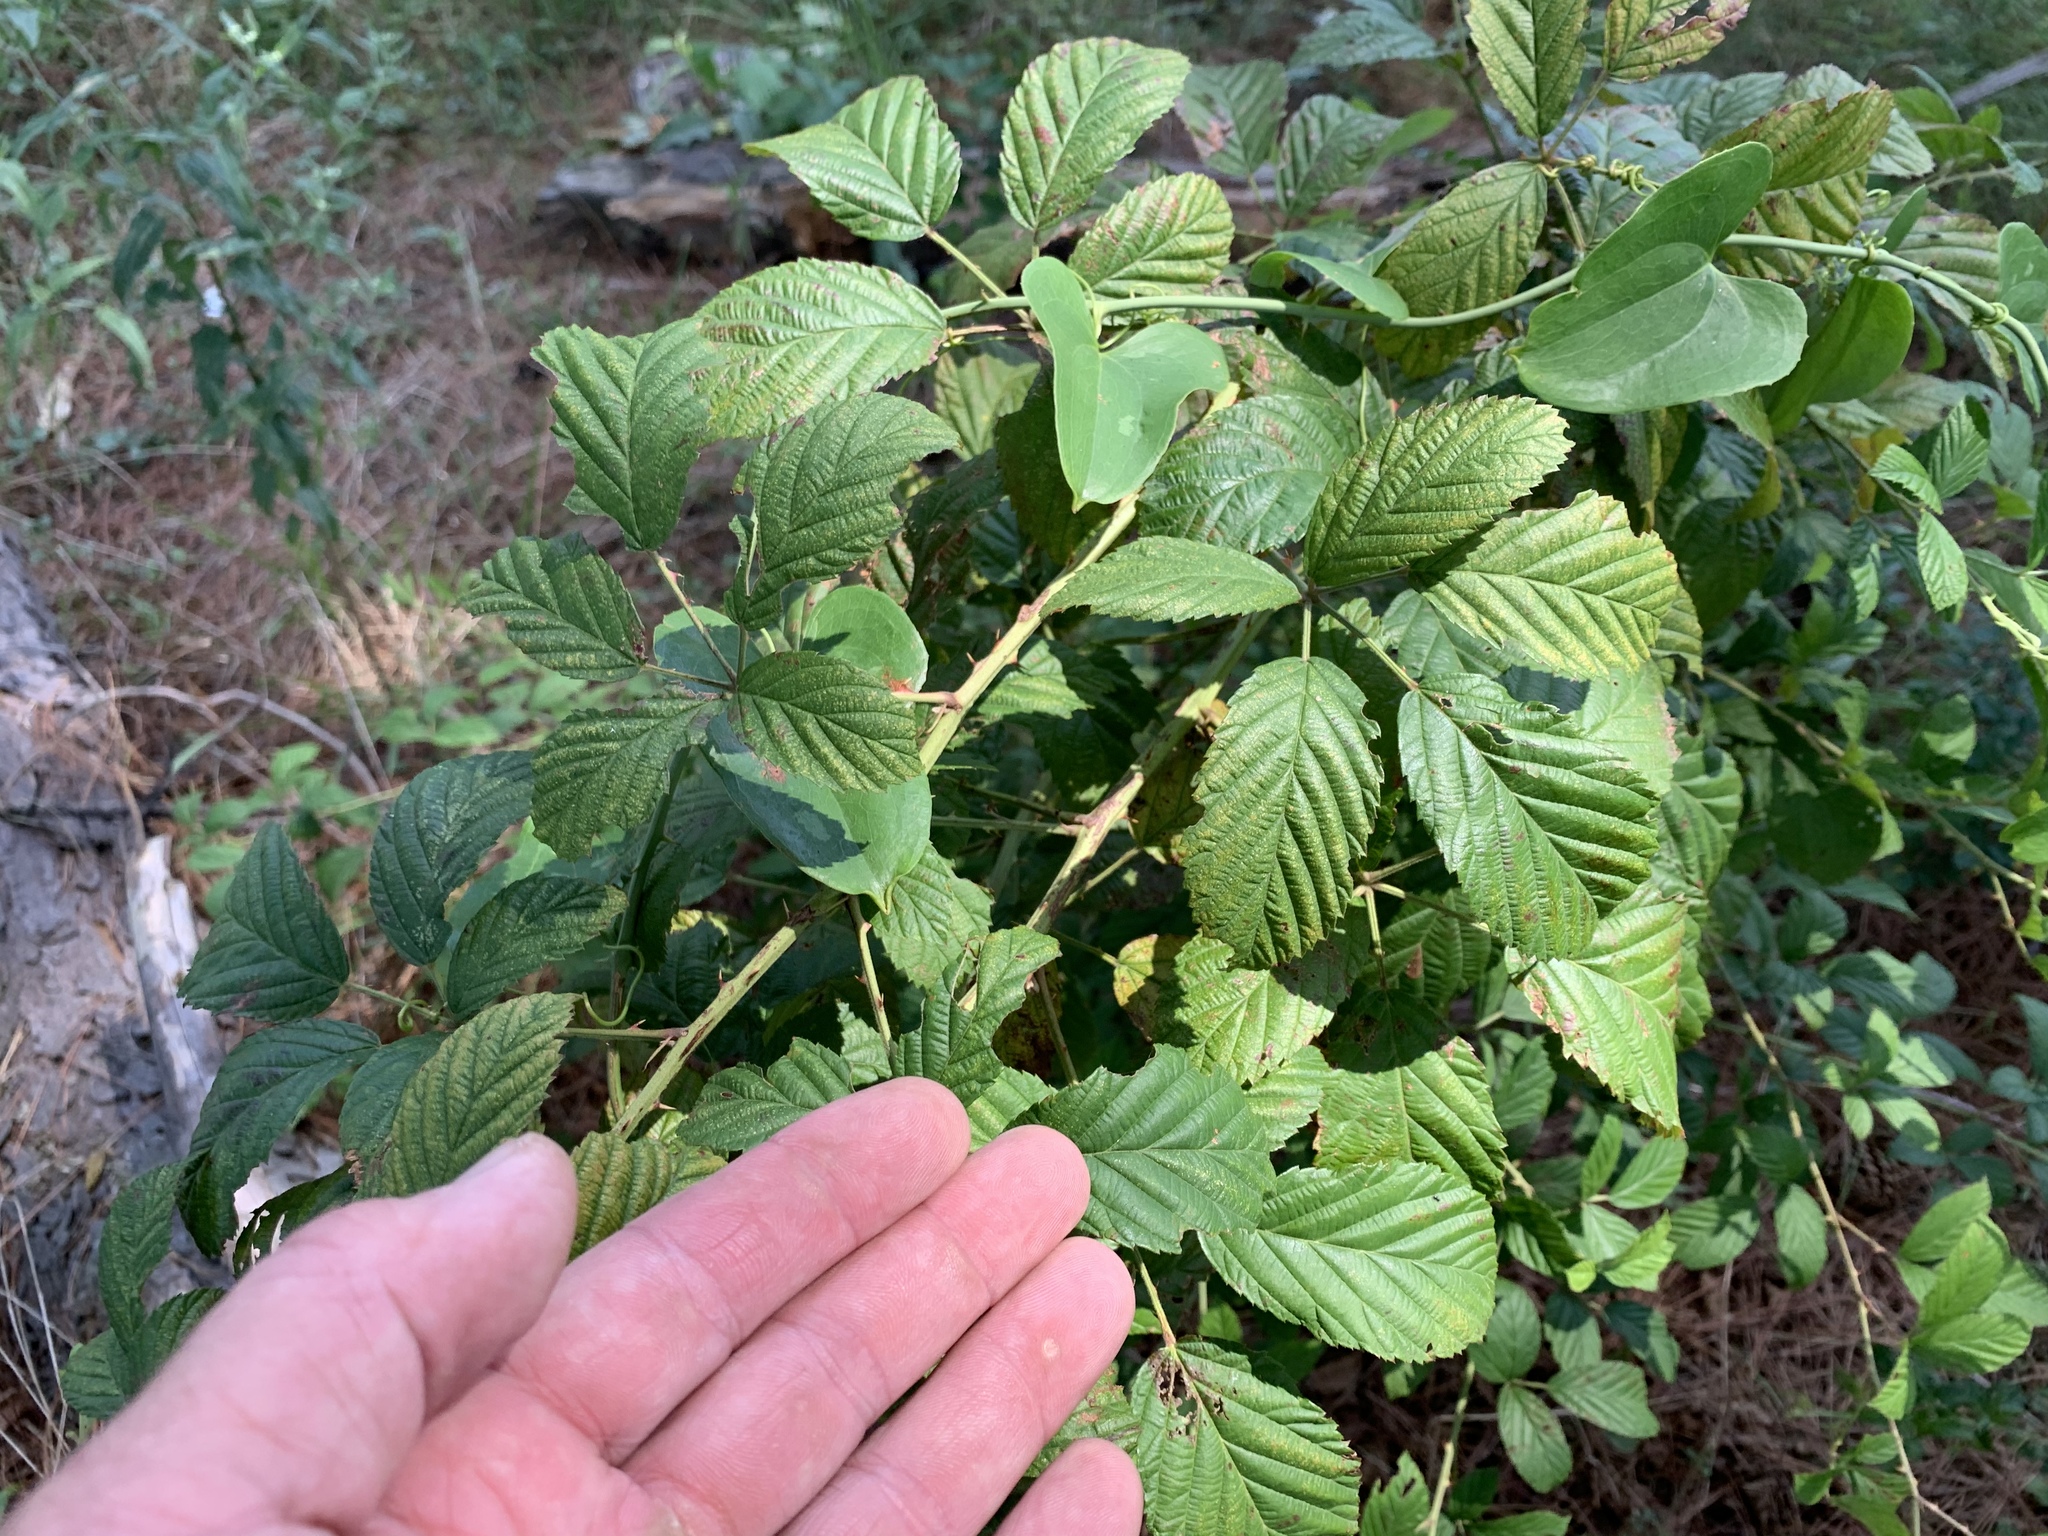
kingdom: Plantae
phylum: Tracheophyta
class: Magnoliopsida
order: Rosales
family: Rosaceae
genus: Rubus
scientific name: Rubus pensilvanicus
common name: Pennsylvania blackberry
